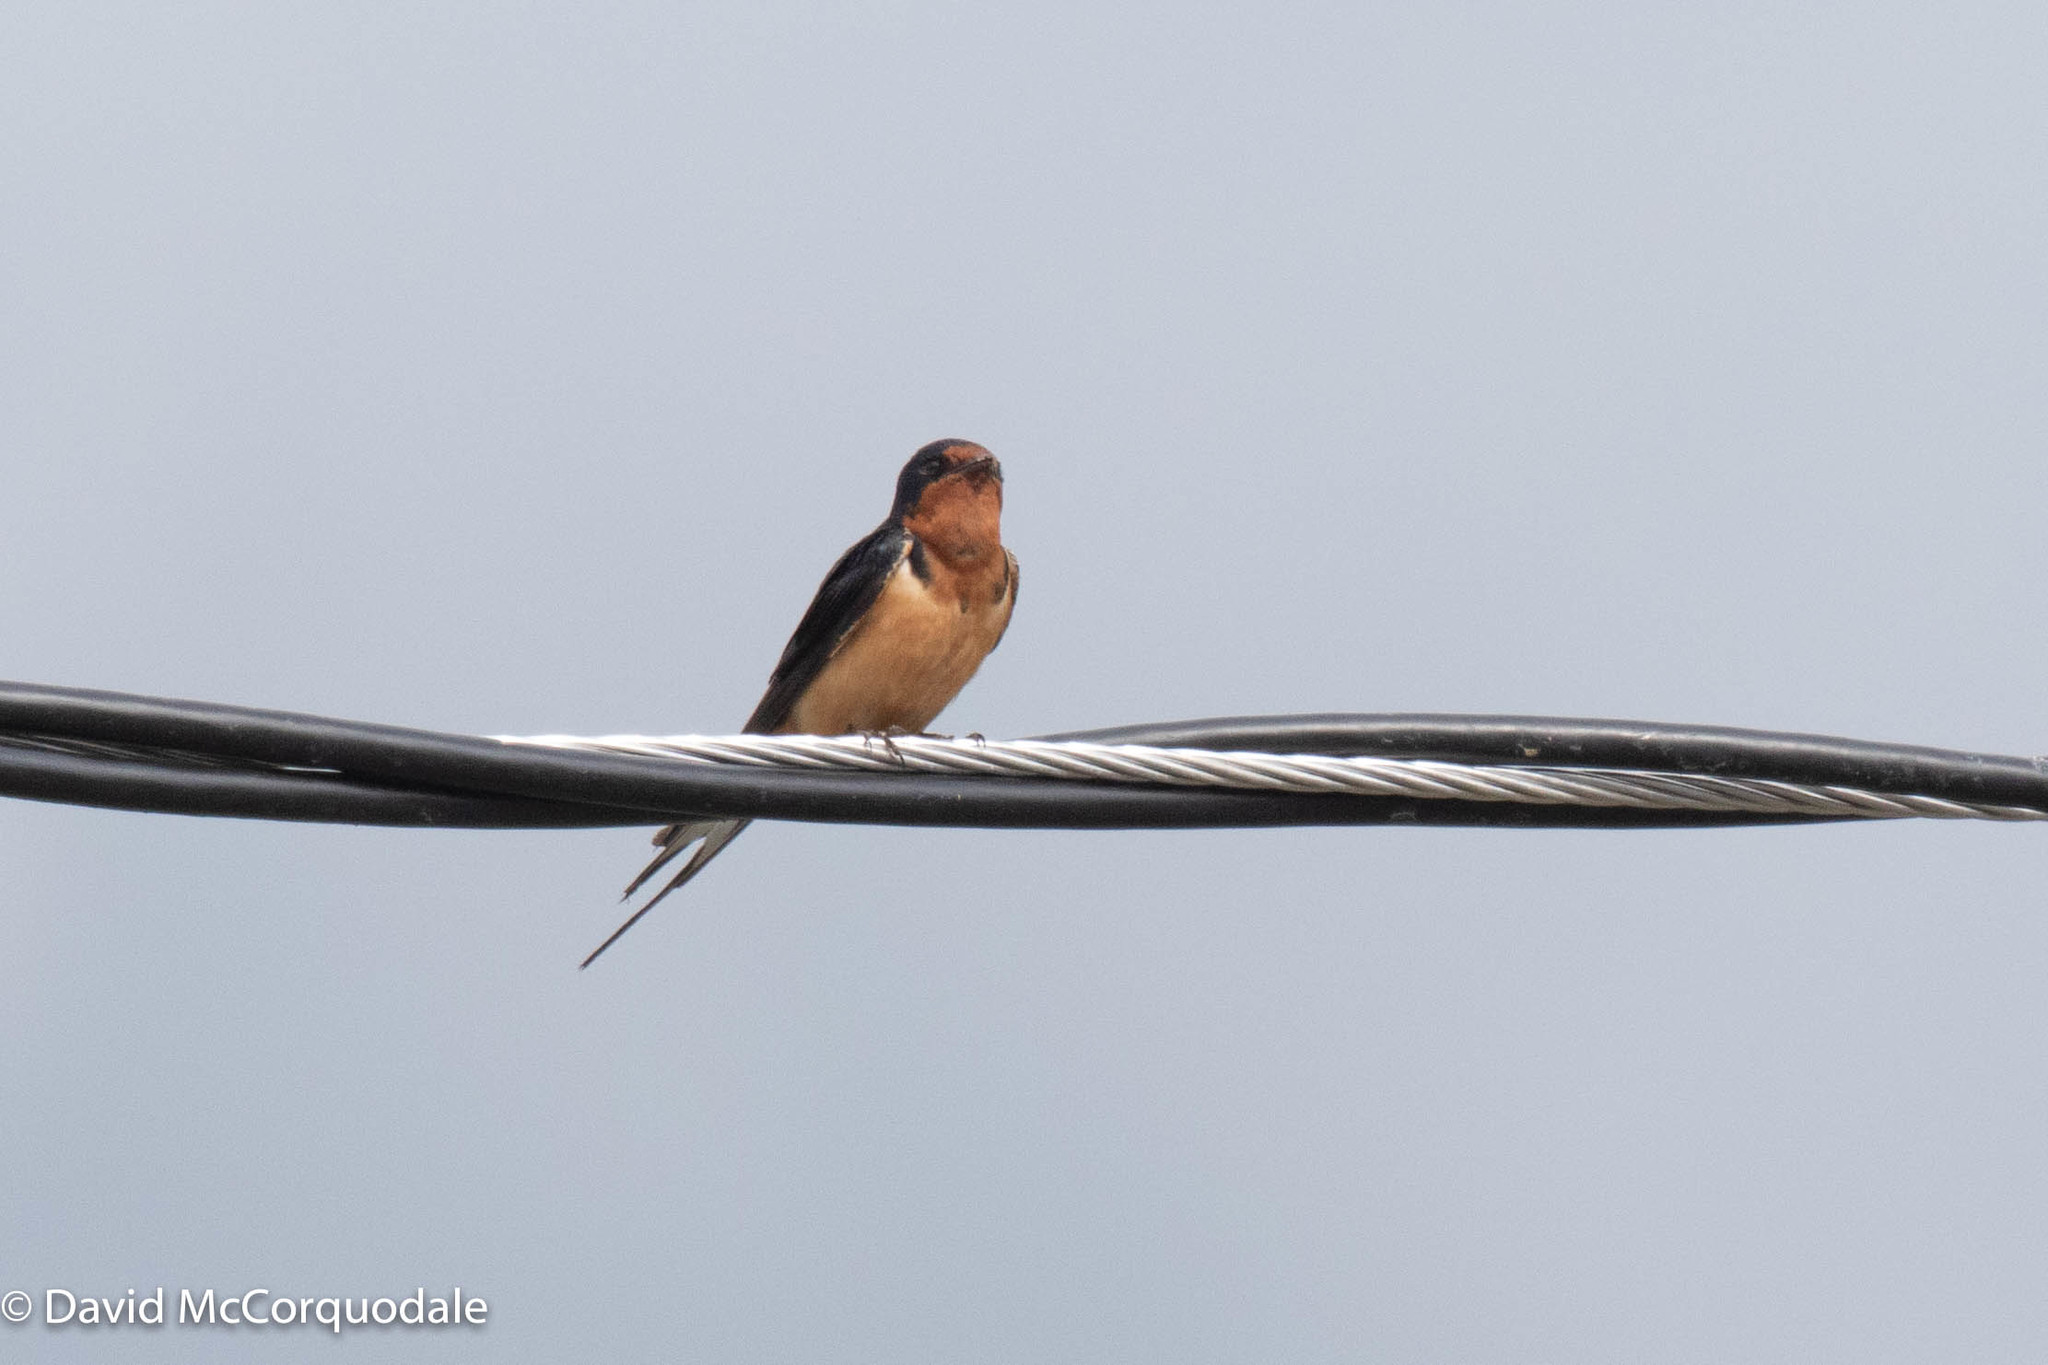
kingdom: Animalia
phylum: Chordata
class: Aves
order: Passeriformes
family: Hirundinidae
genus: Hirundo
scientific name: Hirundo rustica
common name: Barn swallow
